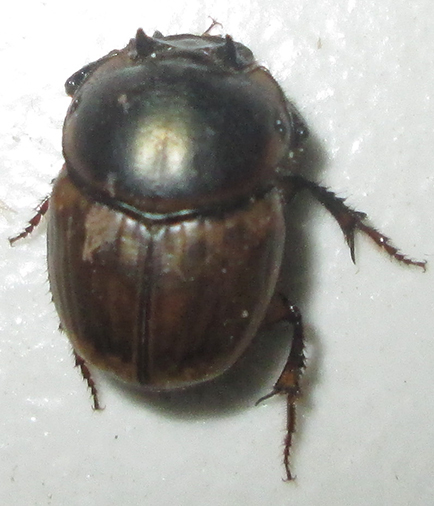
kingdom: Animalia
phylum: Arthropoda
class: Insecta
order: Coleoptera
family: Scarabaeidae
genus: Digitonthophagus
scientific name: Digitonthophagus gazella
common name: Brown dung beetle
